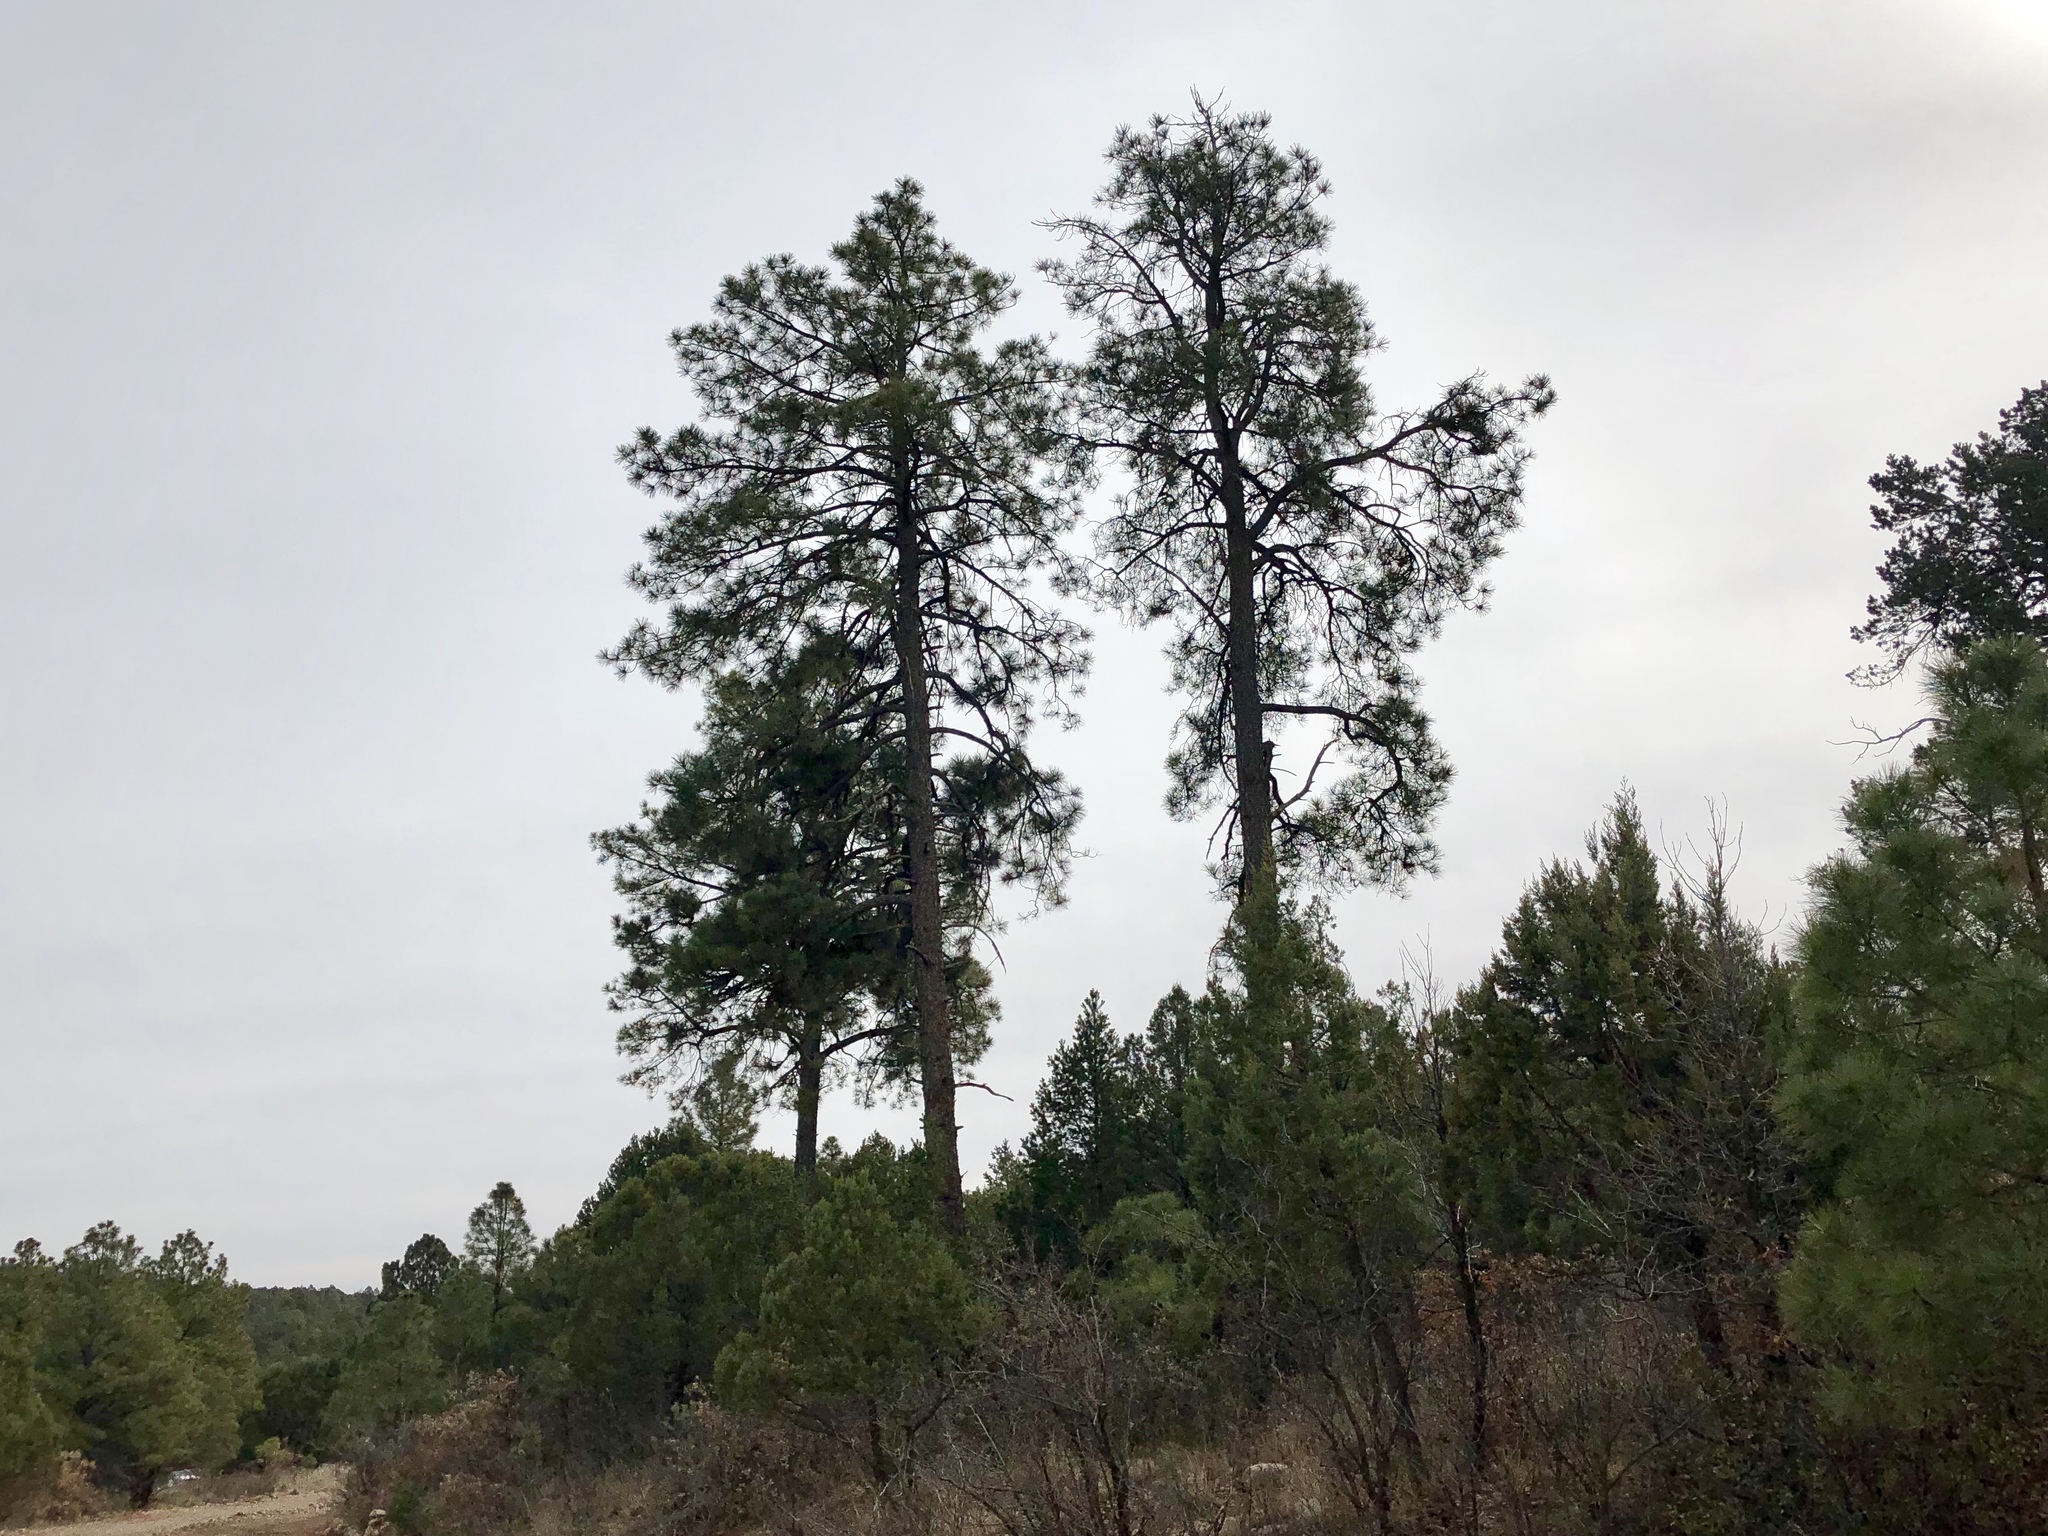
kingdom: Plantae
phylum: Tracheophyta
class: Pinopsida
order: Pinales
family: Pinaceae
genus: Pinus
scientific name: Pinus ponderosa
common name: Western yellow-pine
